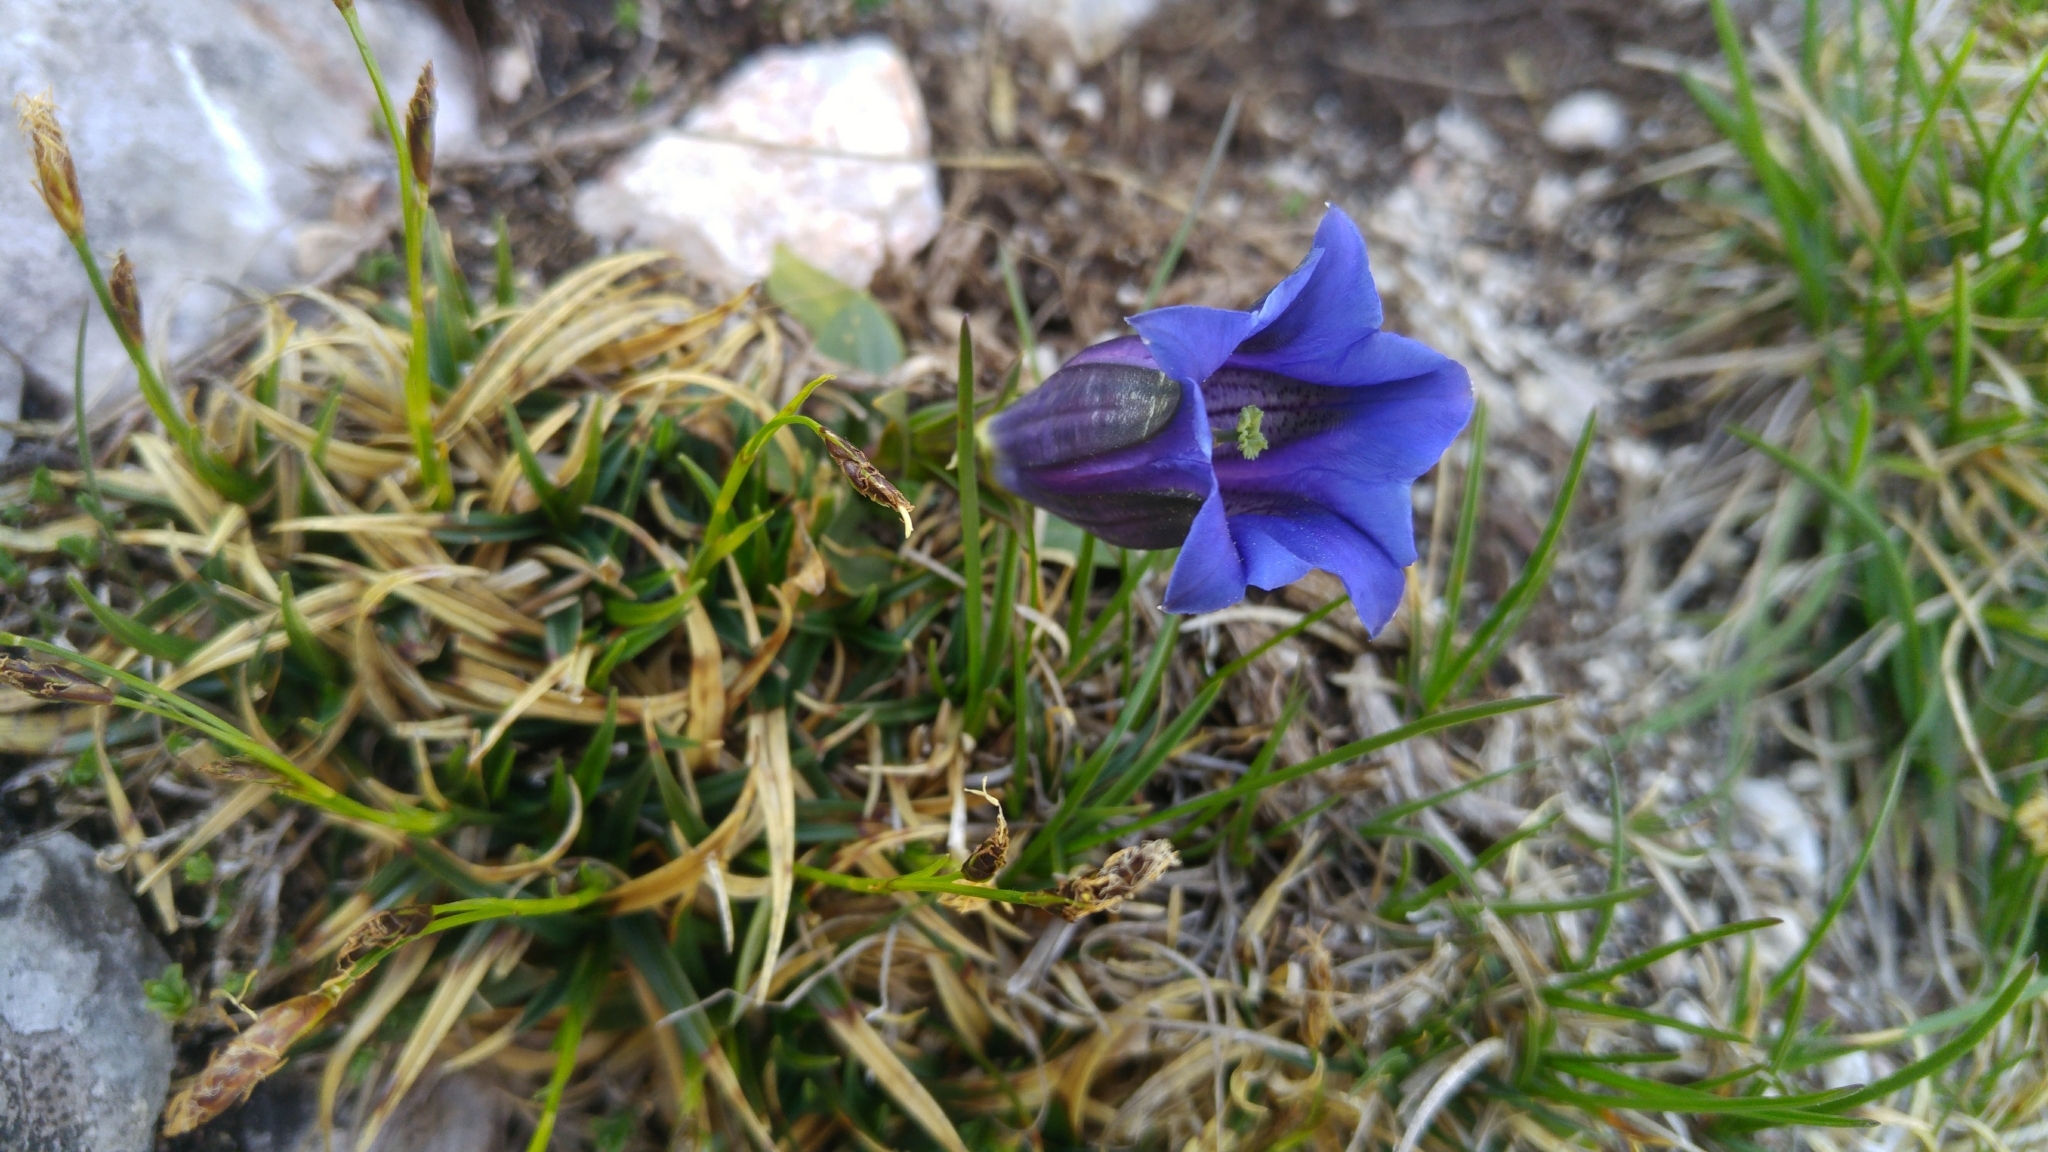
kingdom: Plantae
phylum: Tracheophyta
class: Magnoliopsida
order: Gentianales
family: Gentianaceae
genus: Gentiana
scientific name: Gentiana clusii
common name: Trumpet gentian
